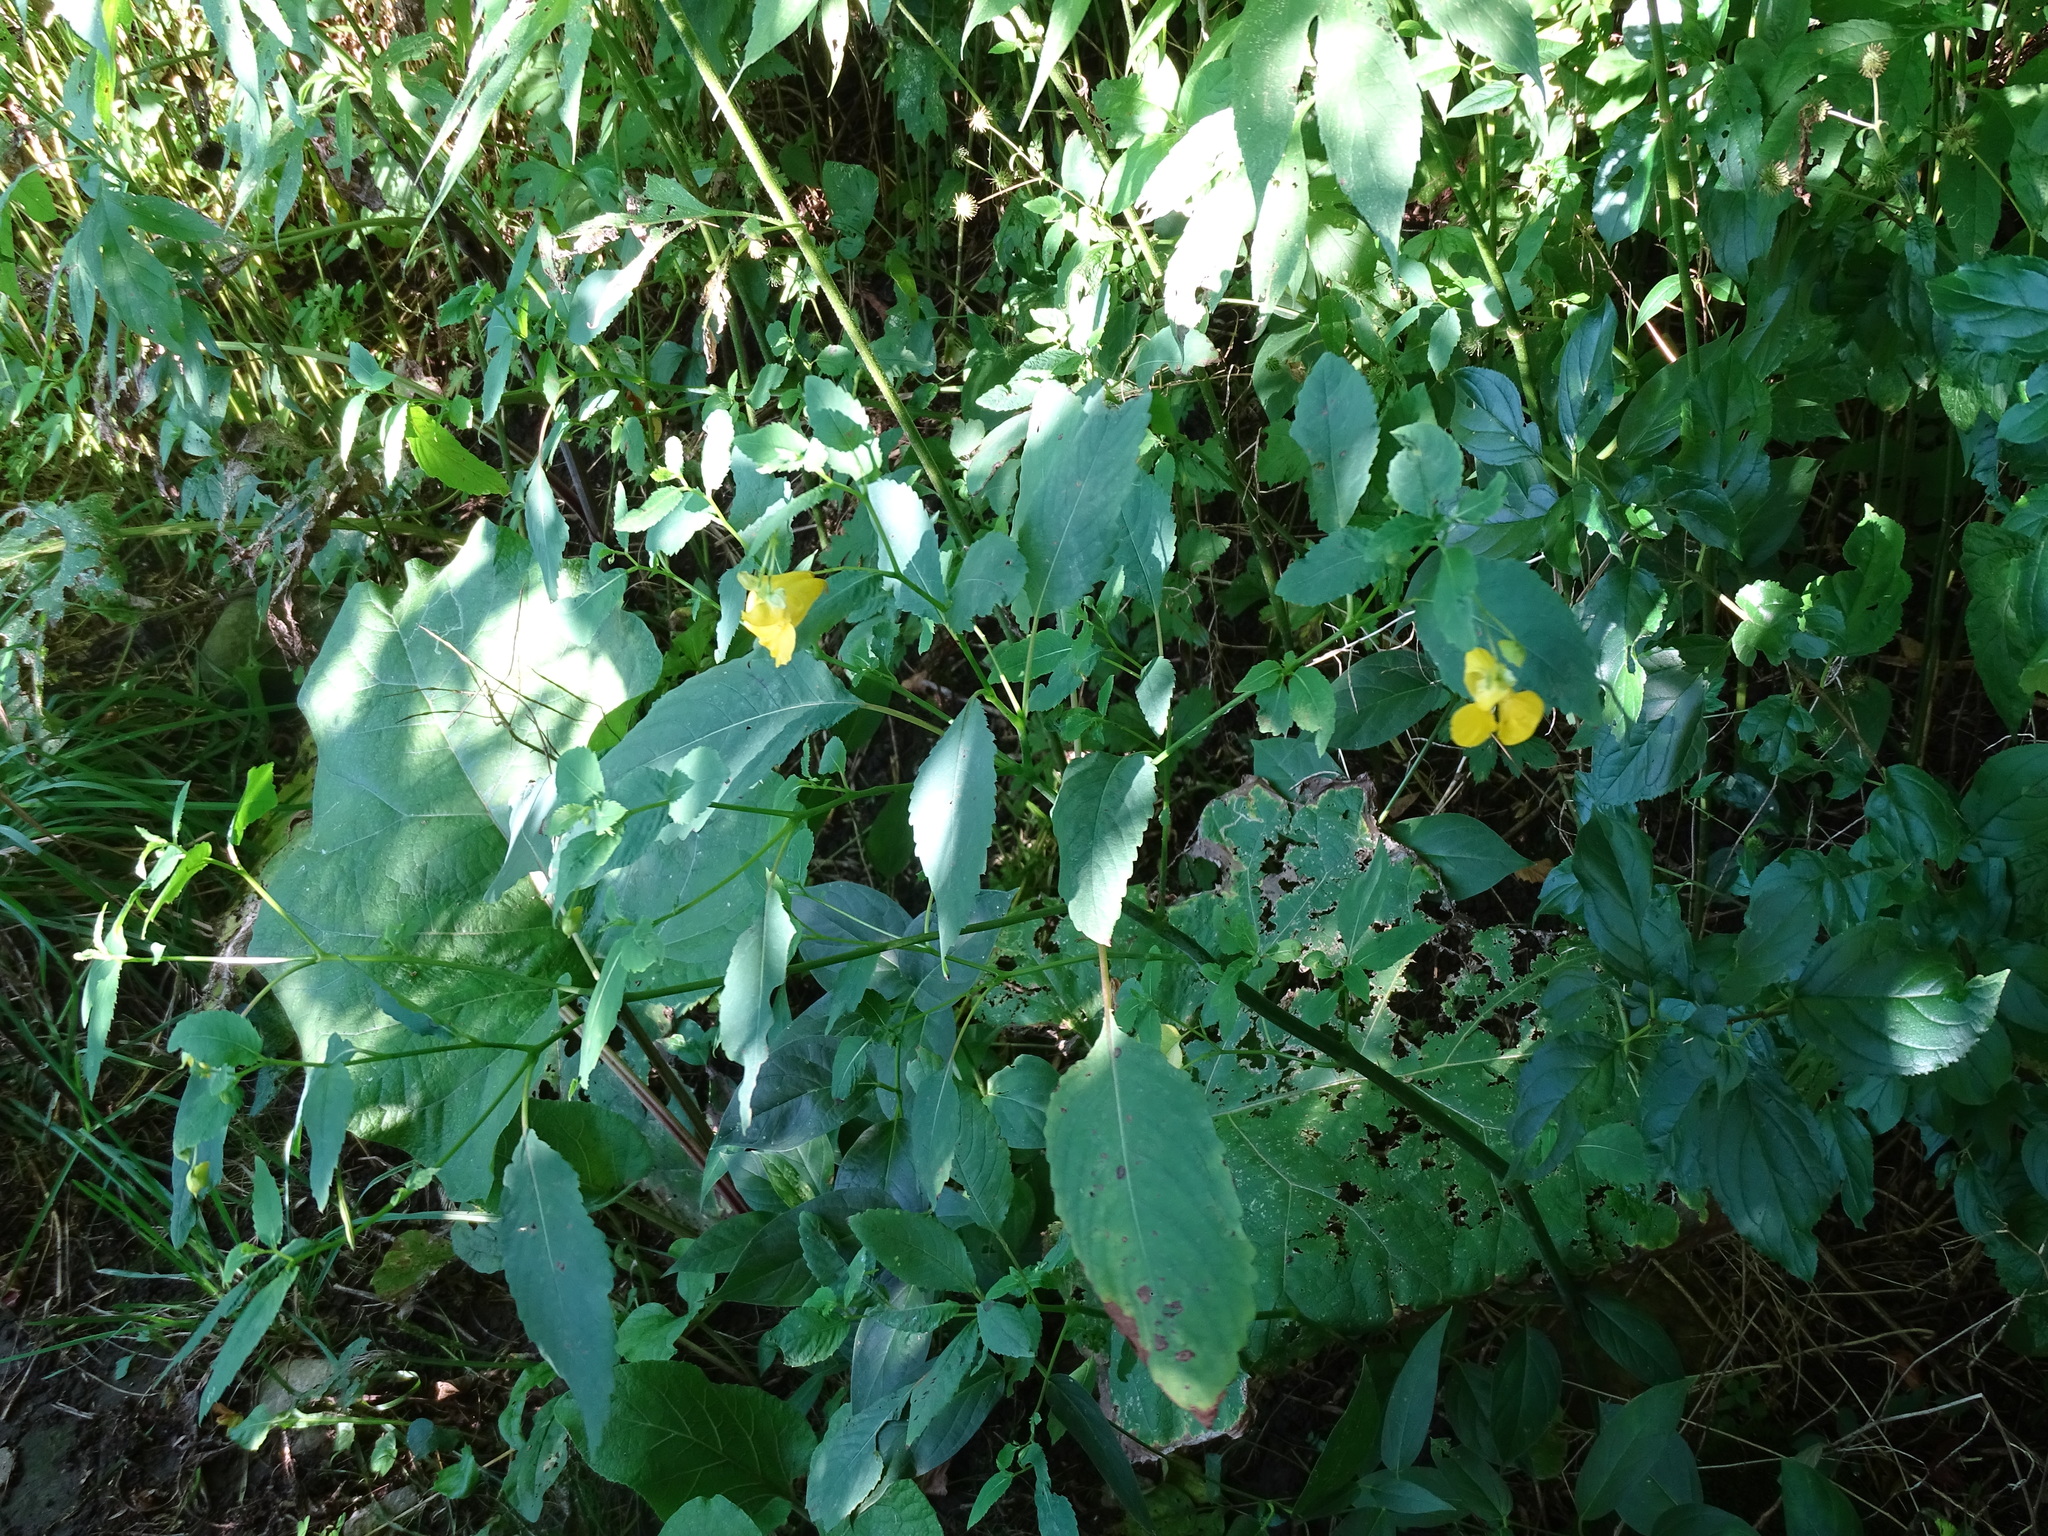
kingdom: Plantae
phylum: Tracheophyta
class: Magnoliopsida
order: Ericales
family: Balsaminaceae
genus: Impatiens
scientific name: Impatiens pallida
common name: Pale snapweed
